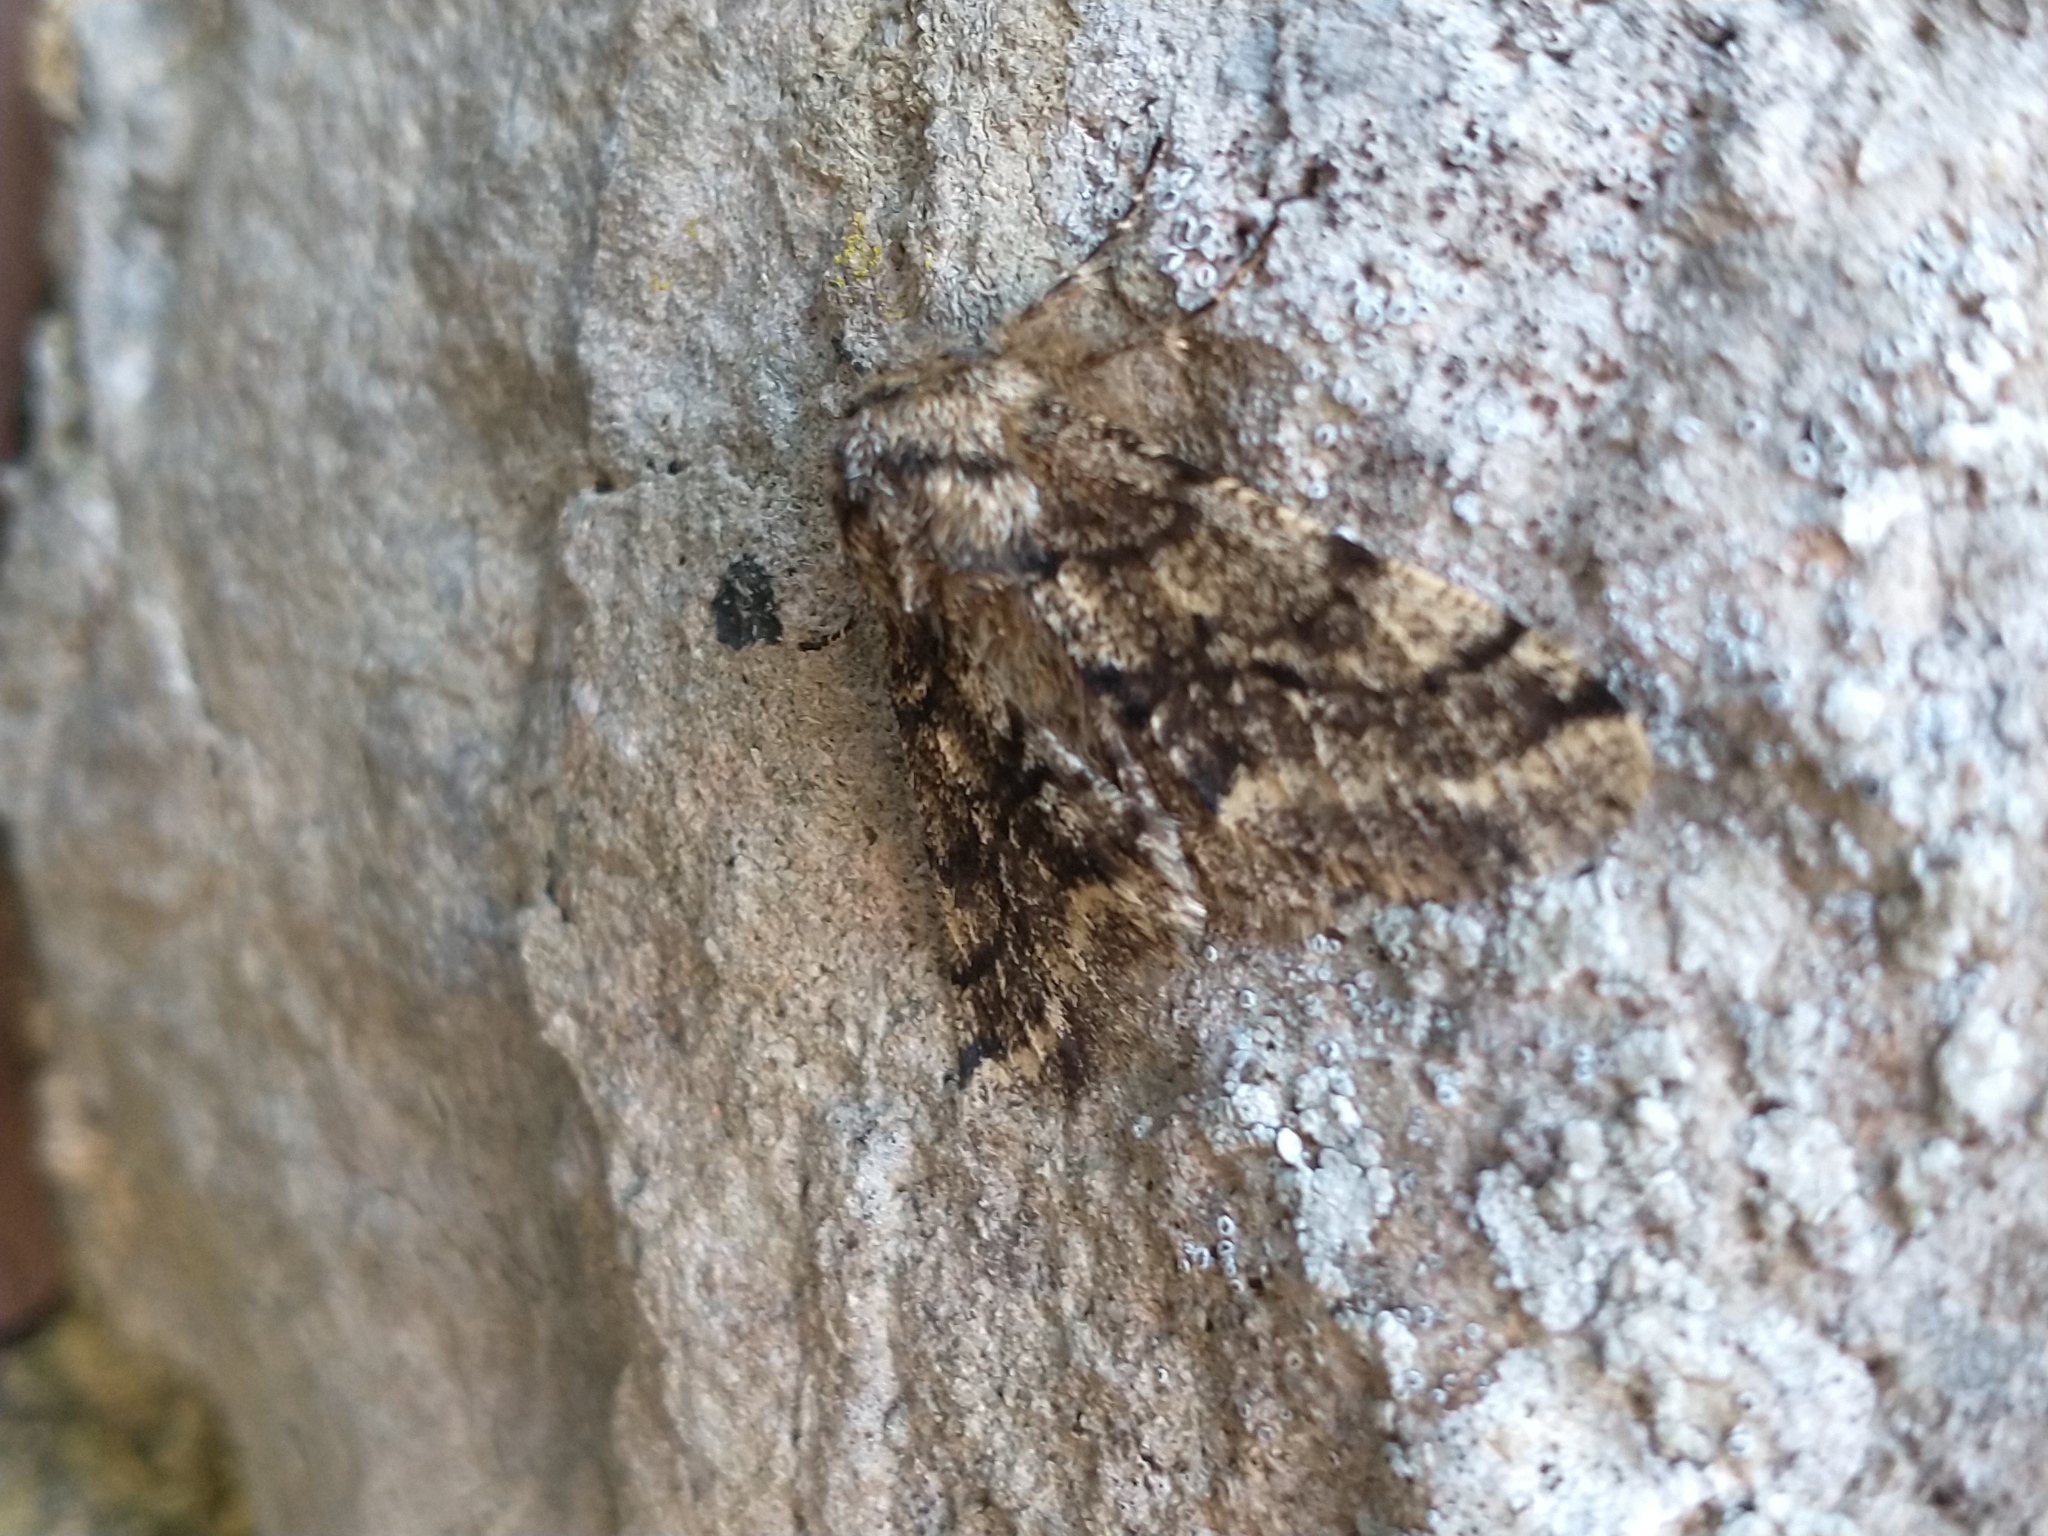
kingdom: Animalia
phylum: Arthropoda
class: Insecta
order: Lepidoptera
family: Geometridae
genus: Lycia
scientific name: Lycia hirtaria
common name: Brindled beauty
